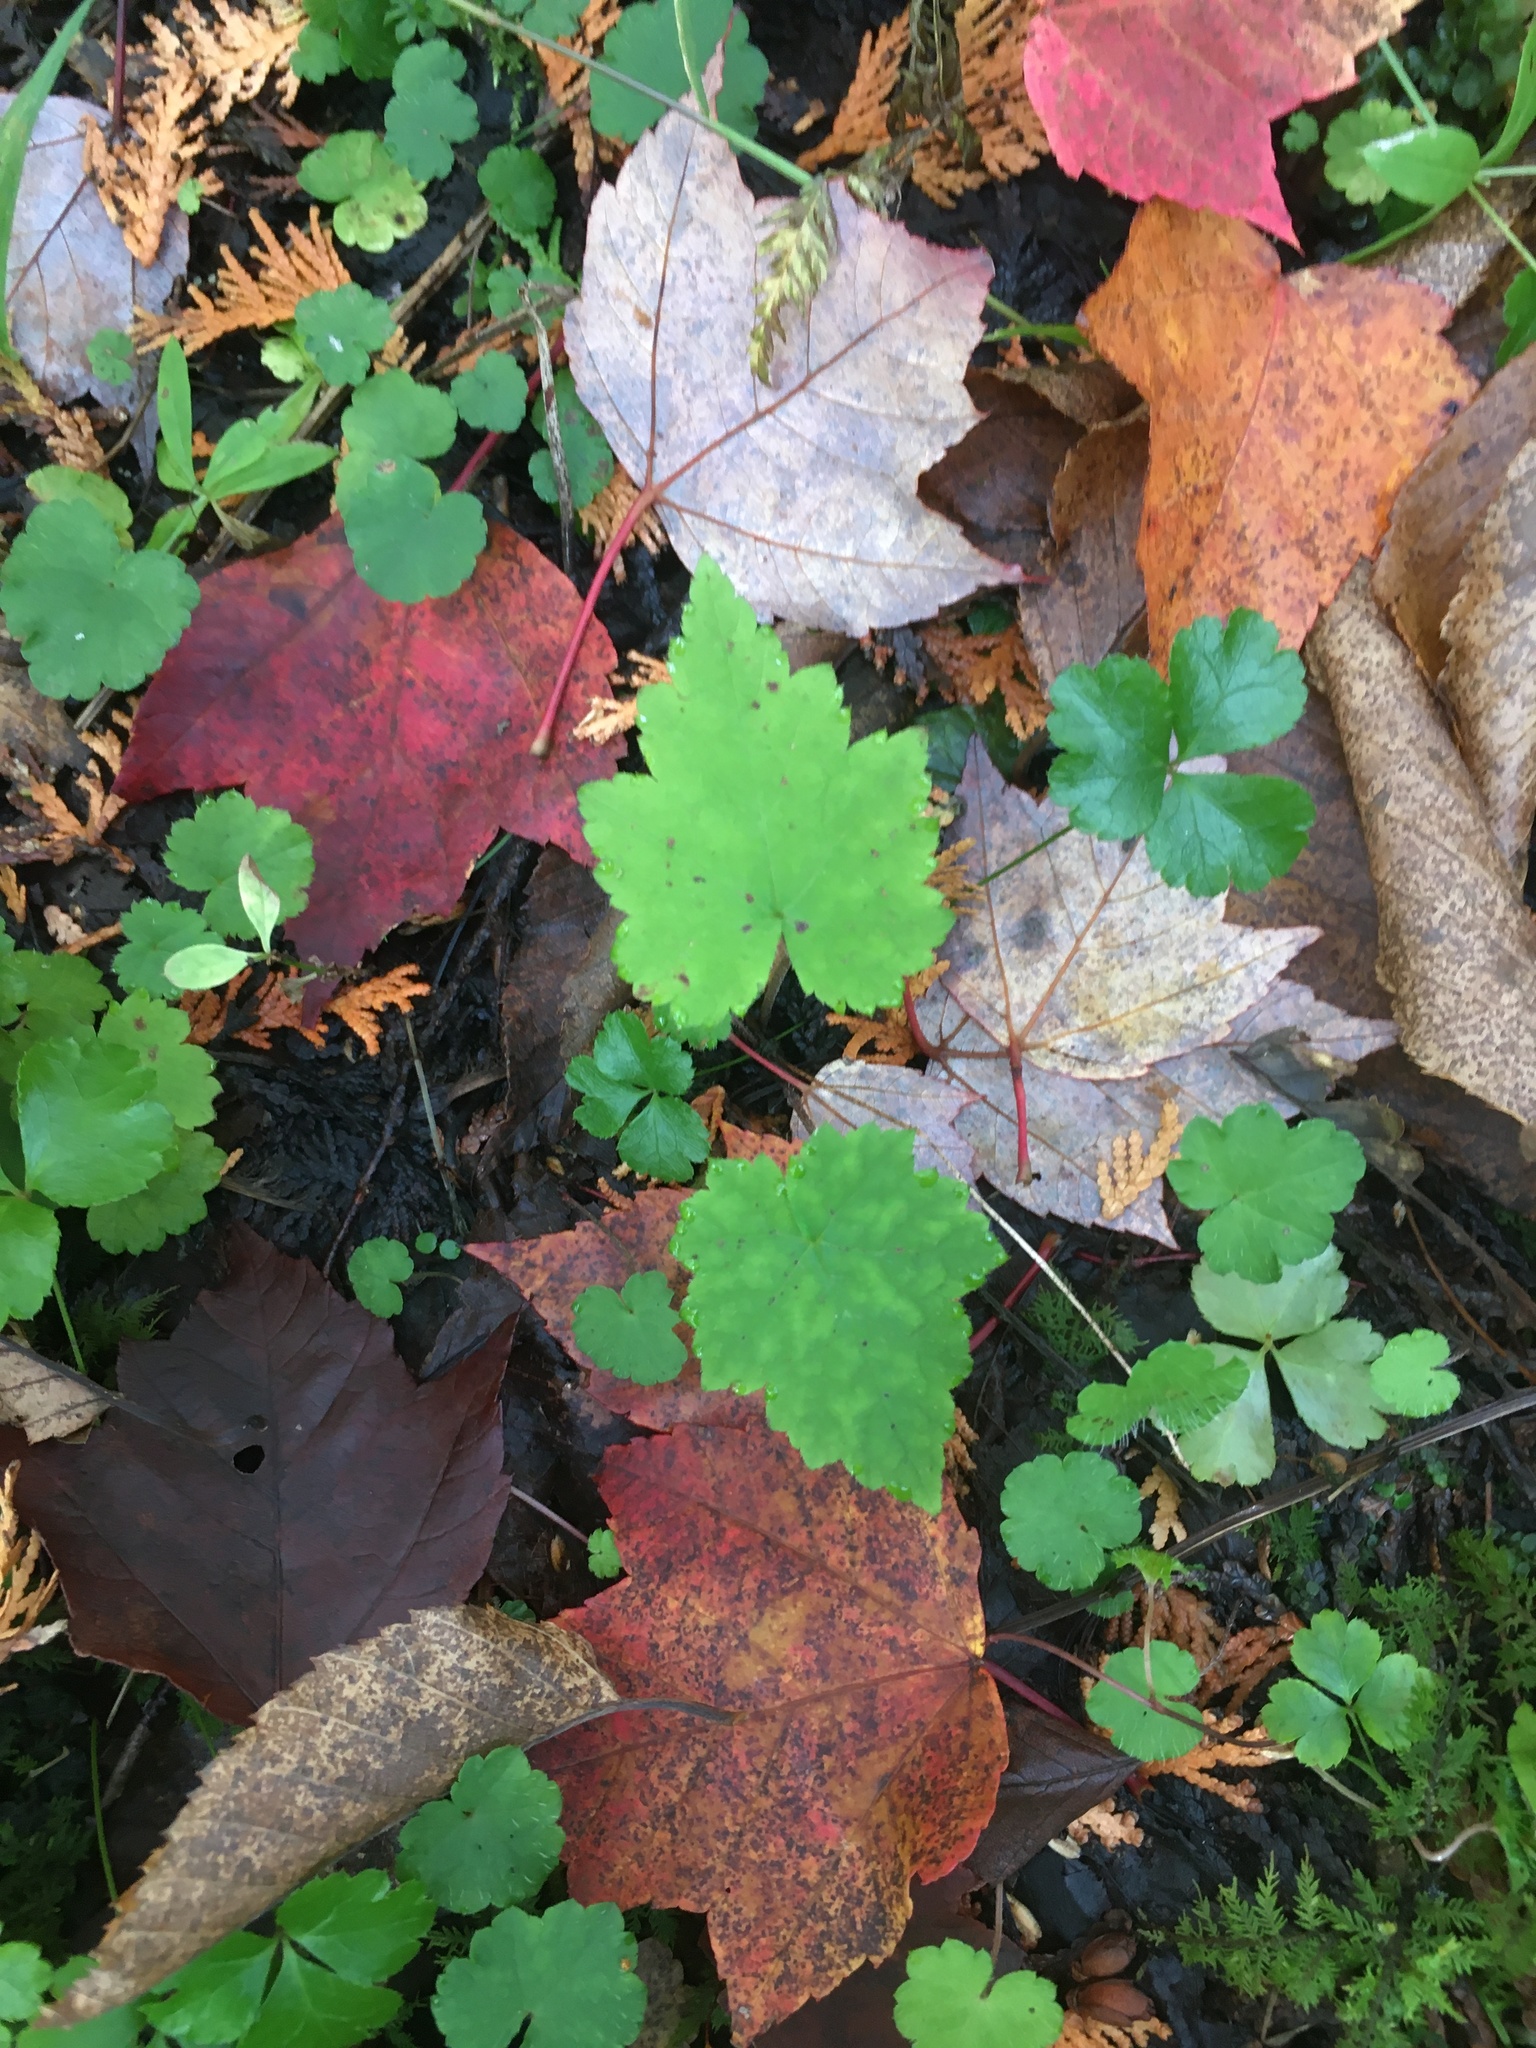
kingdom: Plantae
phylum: Tracheophyta
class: Magnoliopsida
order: Saxifragales
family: Saxifragaceae
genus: Tiarella
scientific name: Tiarella stolonifera
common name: Stoloniferous foamflower
